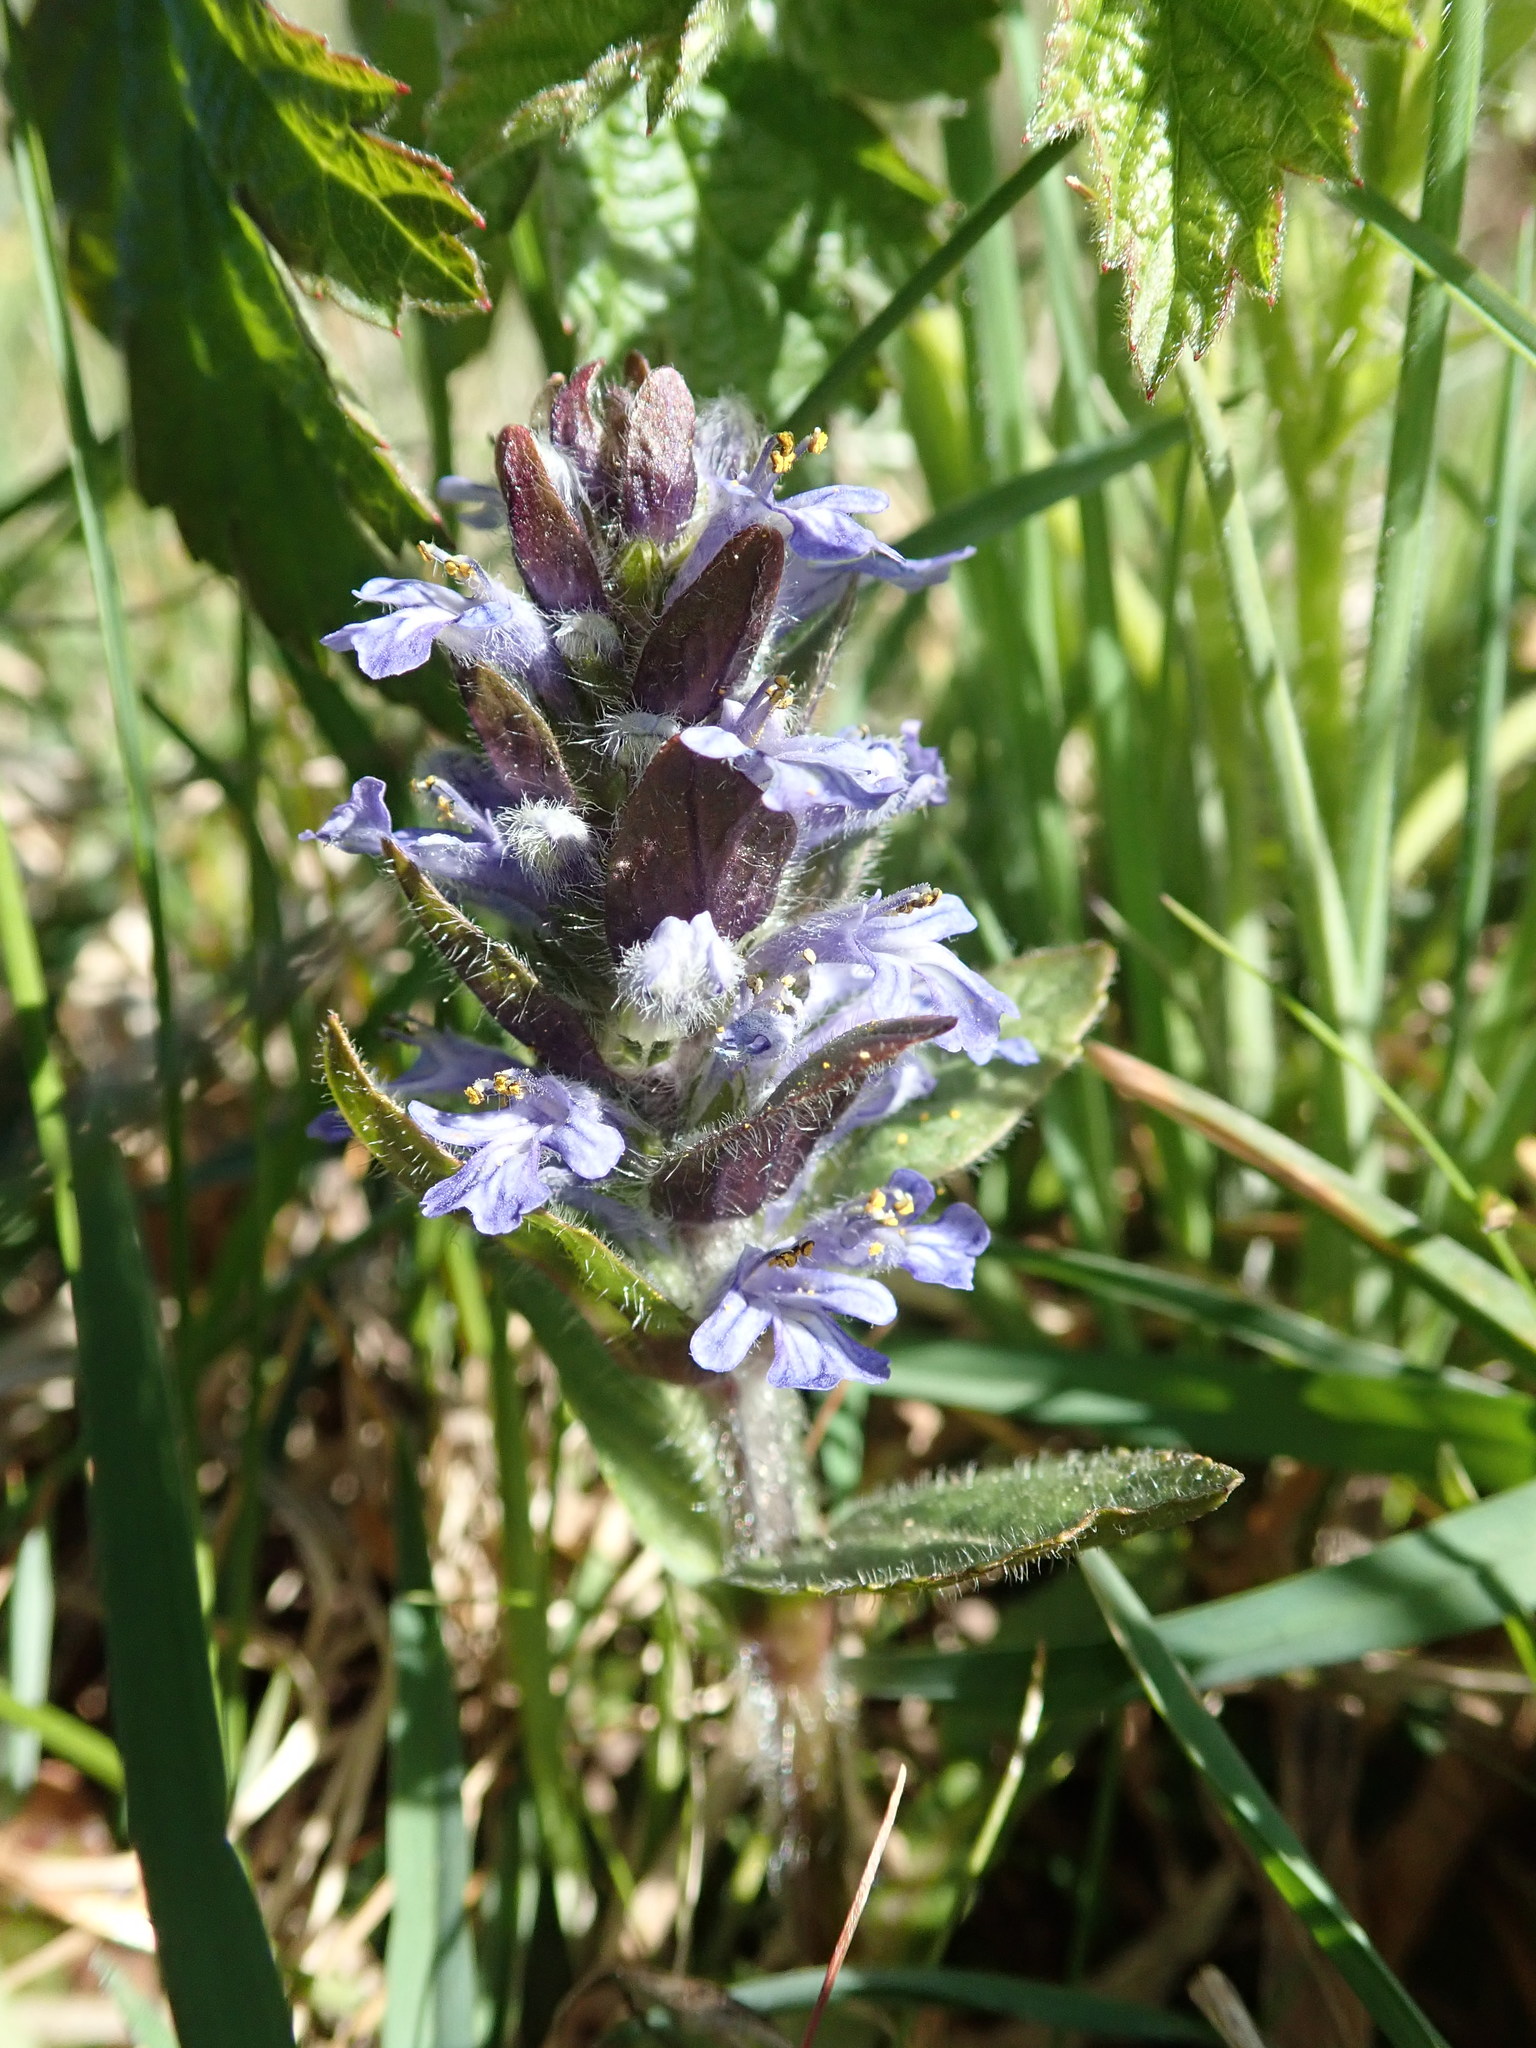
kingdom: Plantae
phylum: Tracheophyta
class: Magnoliopsida
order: Lamiales
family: Lamiaceae
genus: Ajuga
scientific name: Ajuga reptans
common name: Bugle
